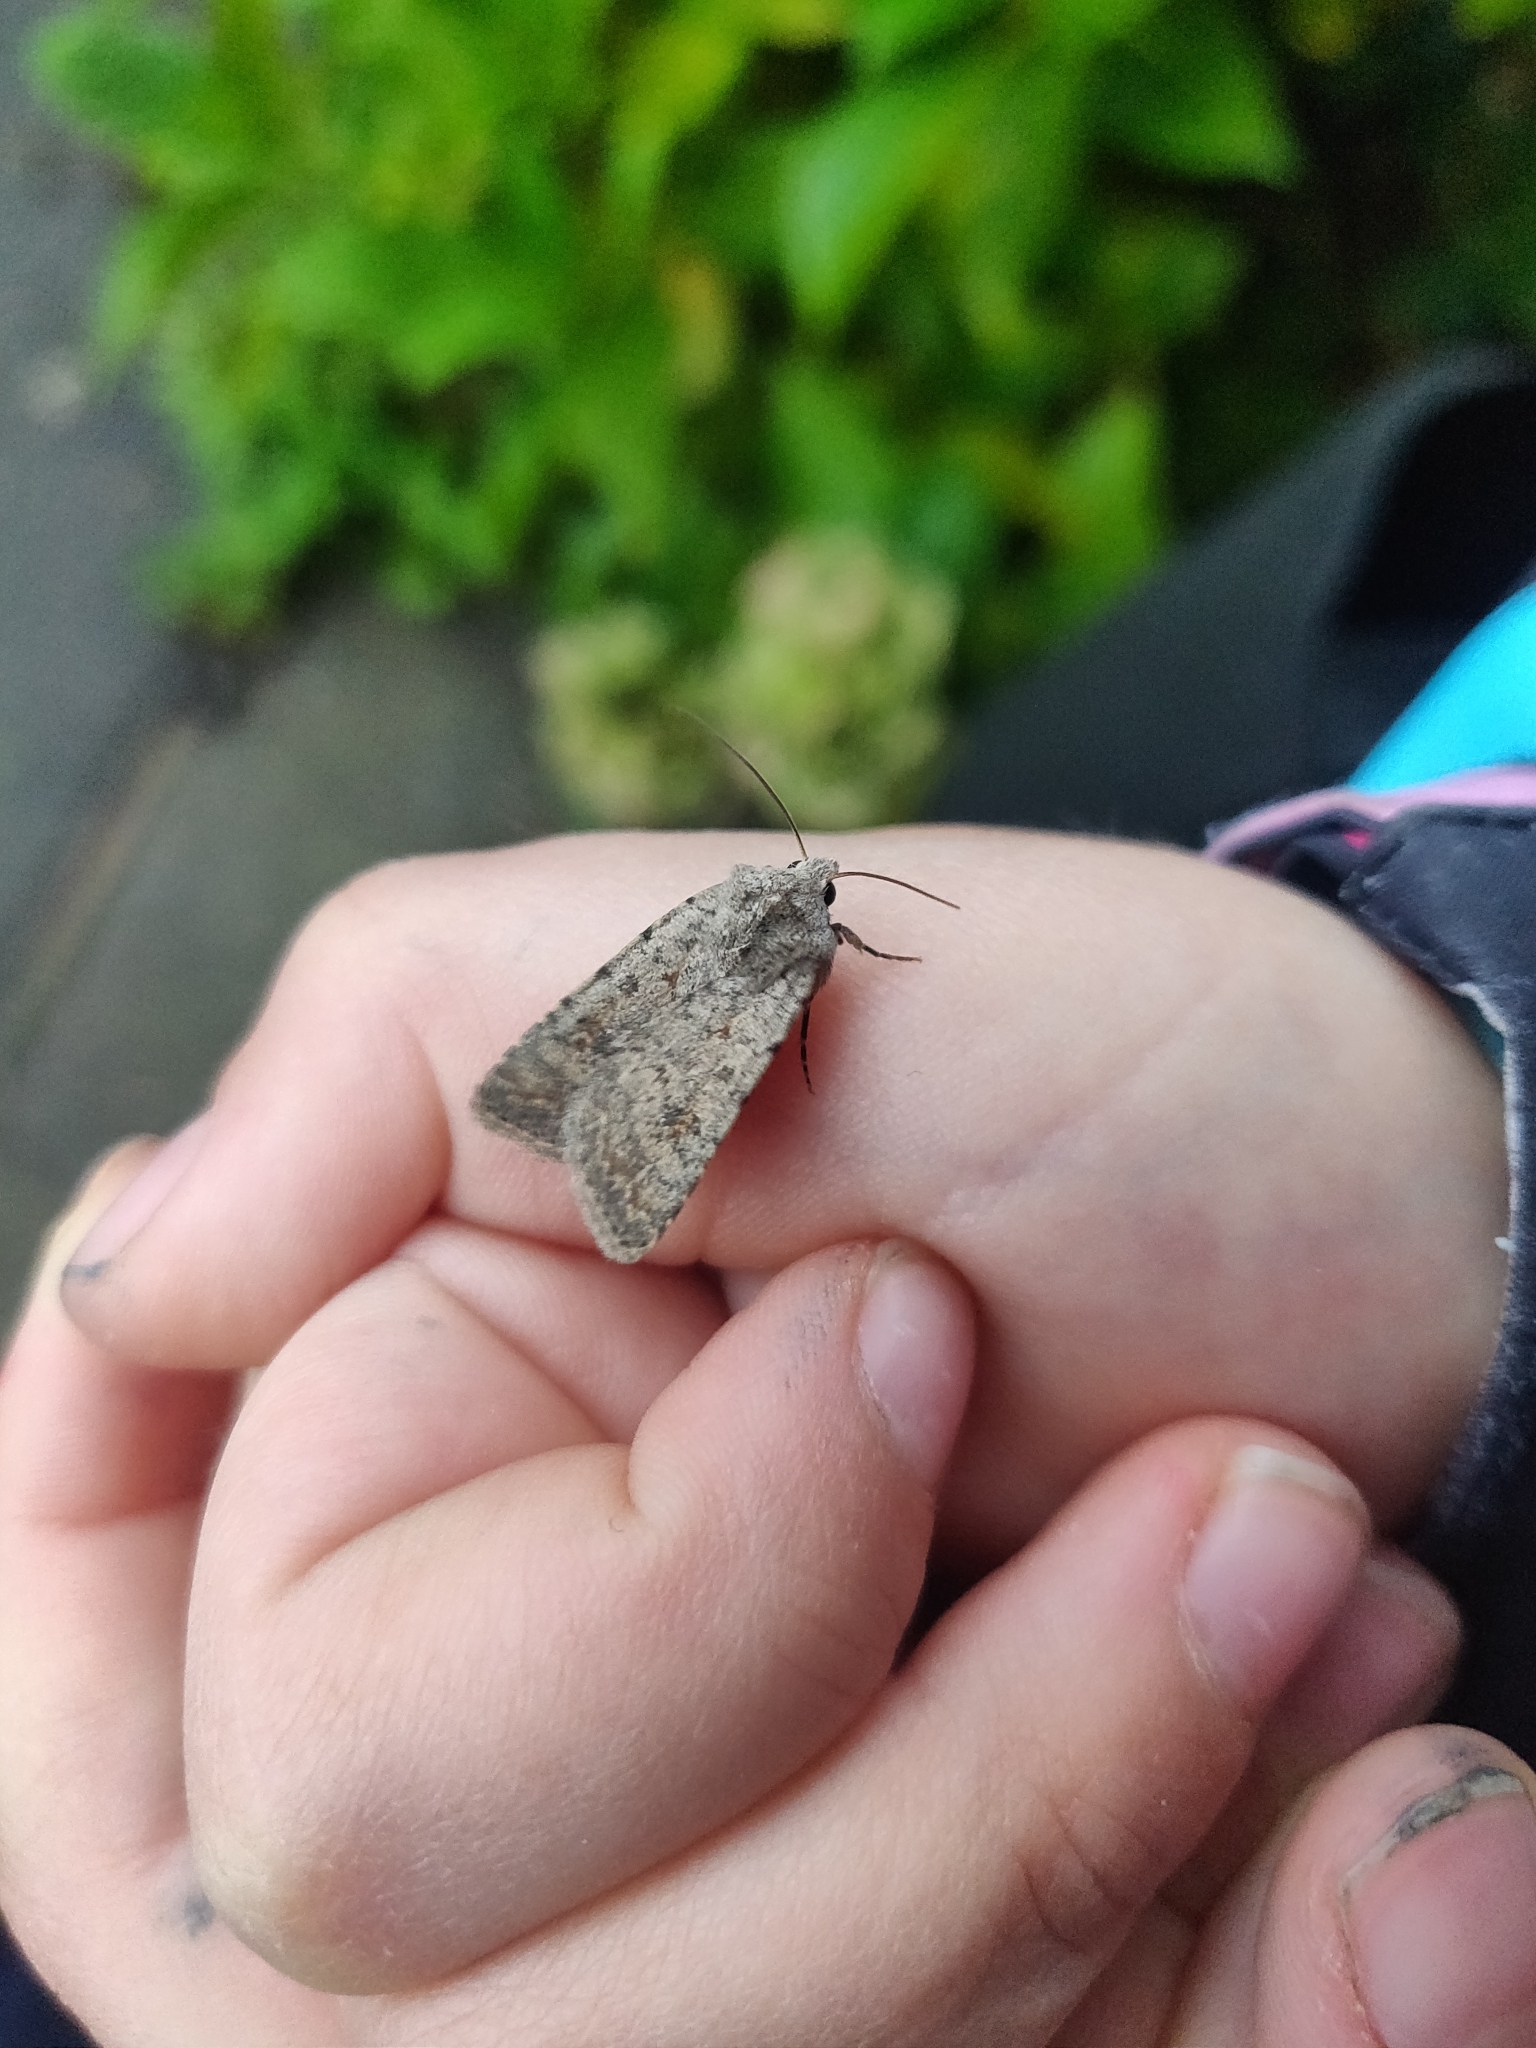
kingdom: Animalia
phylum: Arthropoda
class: Insecta
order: Lepidoptera
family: Noctuidae
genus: Caradrina
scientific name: Caradrina clavipalpis
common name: Pale mottled willow
